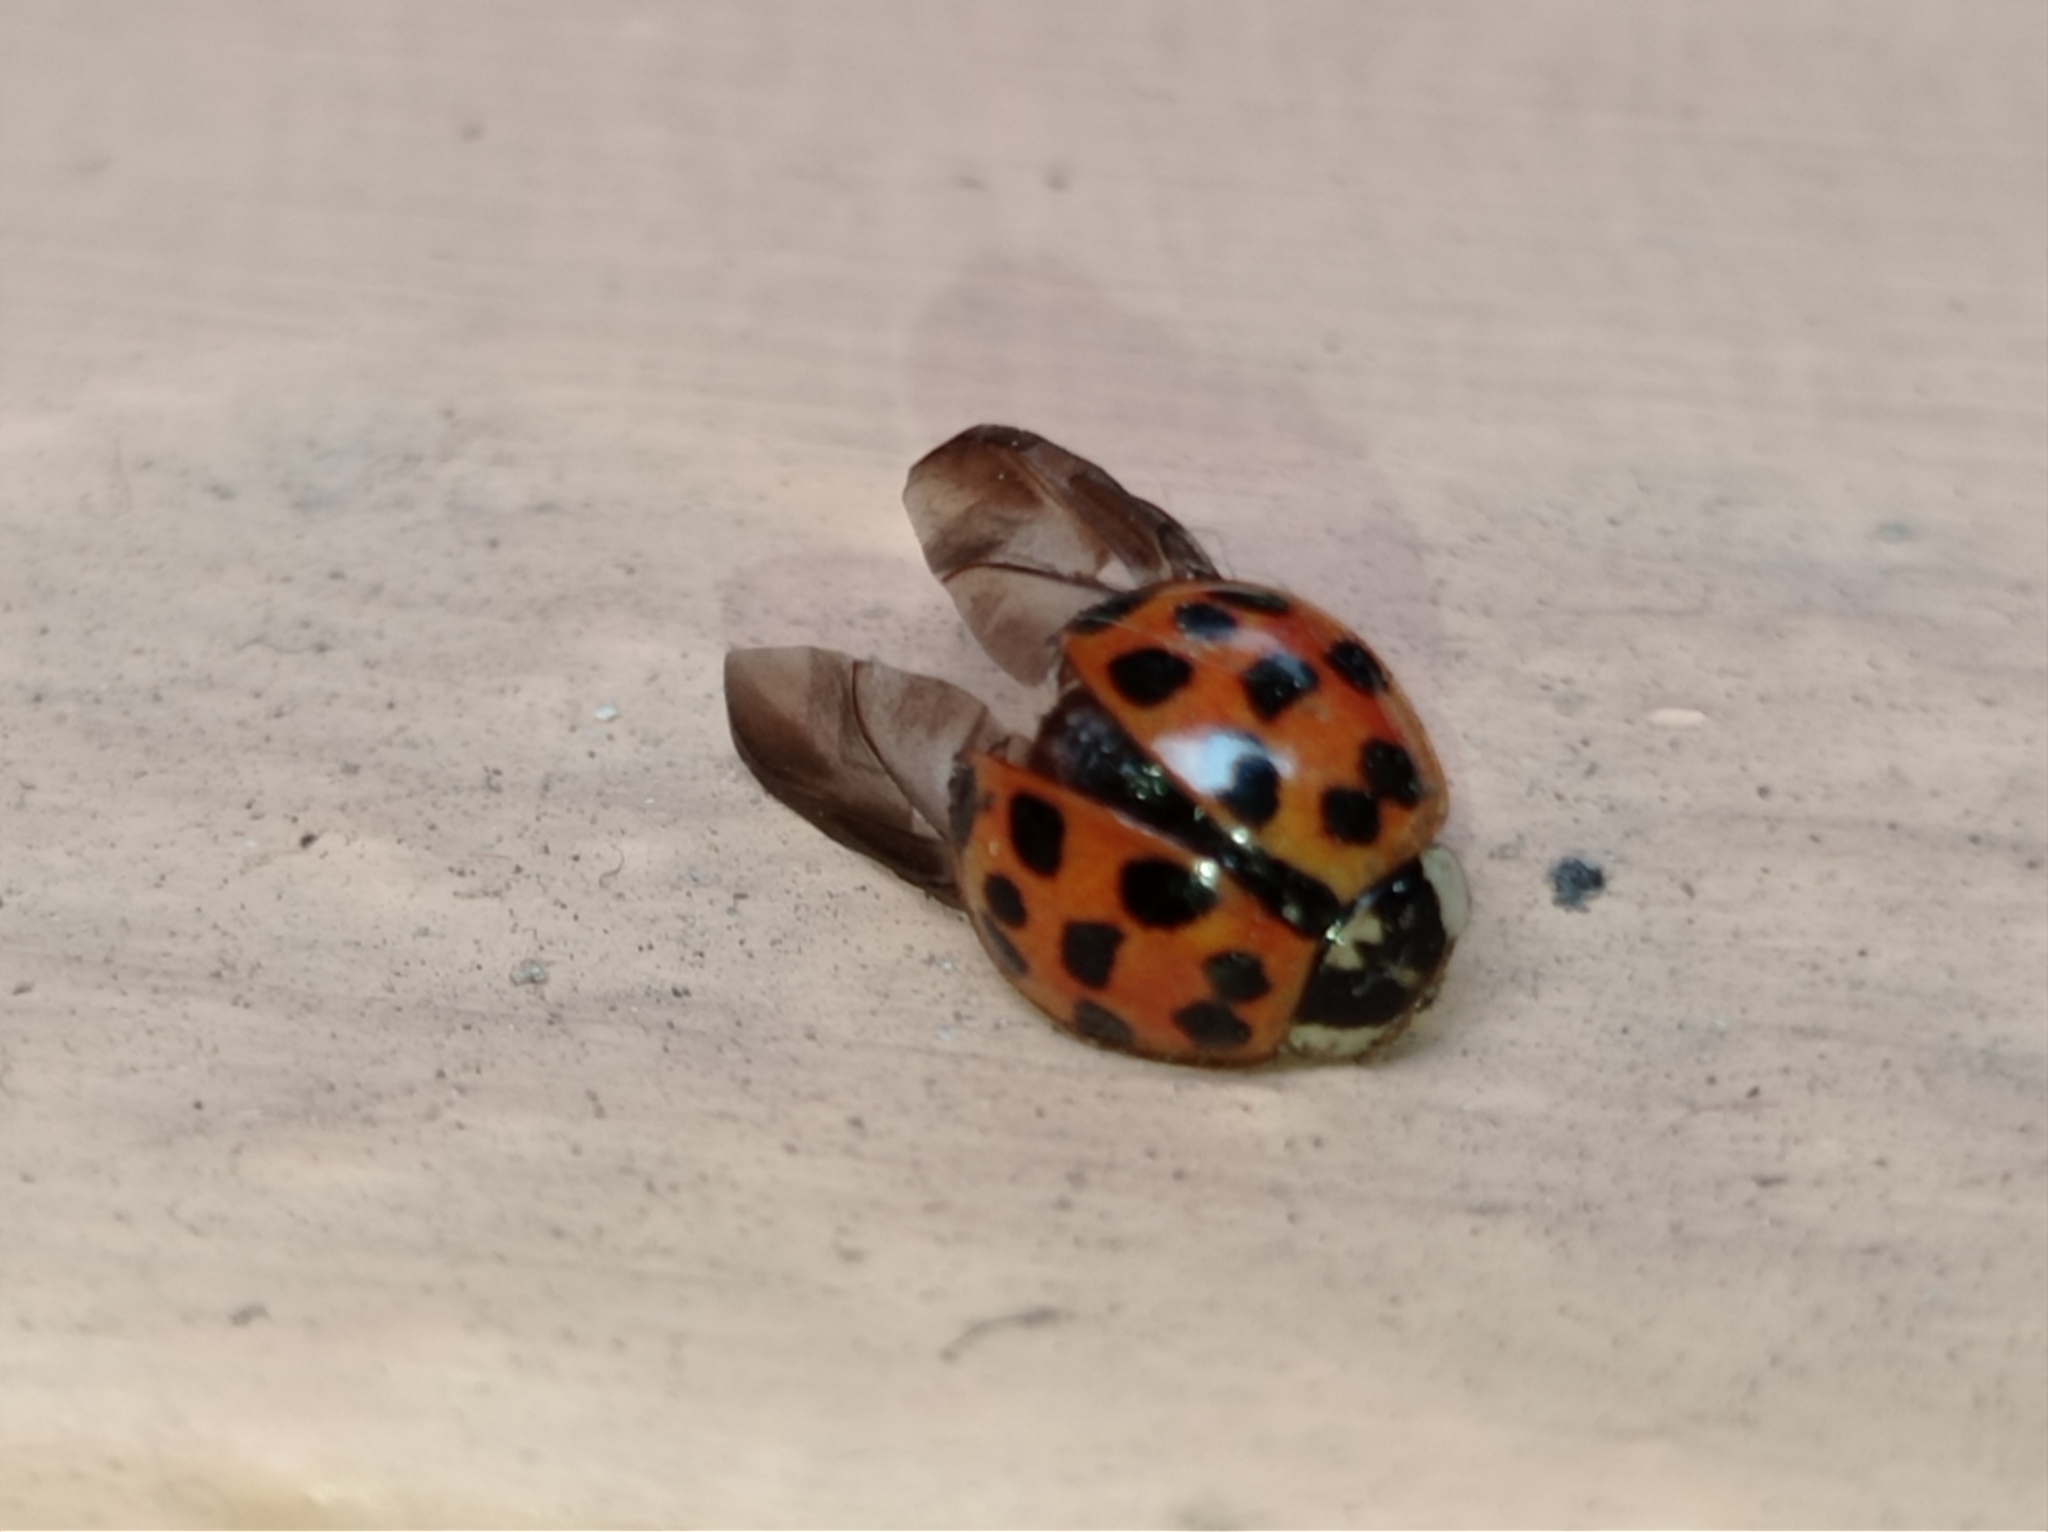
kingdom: Animalia
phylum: Arthropoda
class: Insecta
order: Coleoptera
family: Coccinellidae
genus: Harmonia
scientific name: Harmonia axyridis
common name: Harlequin ladybird
